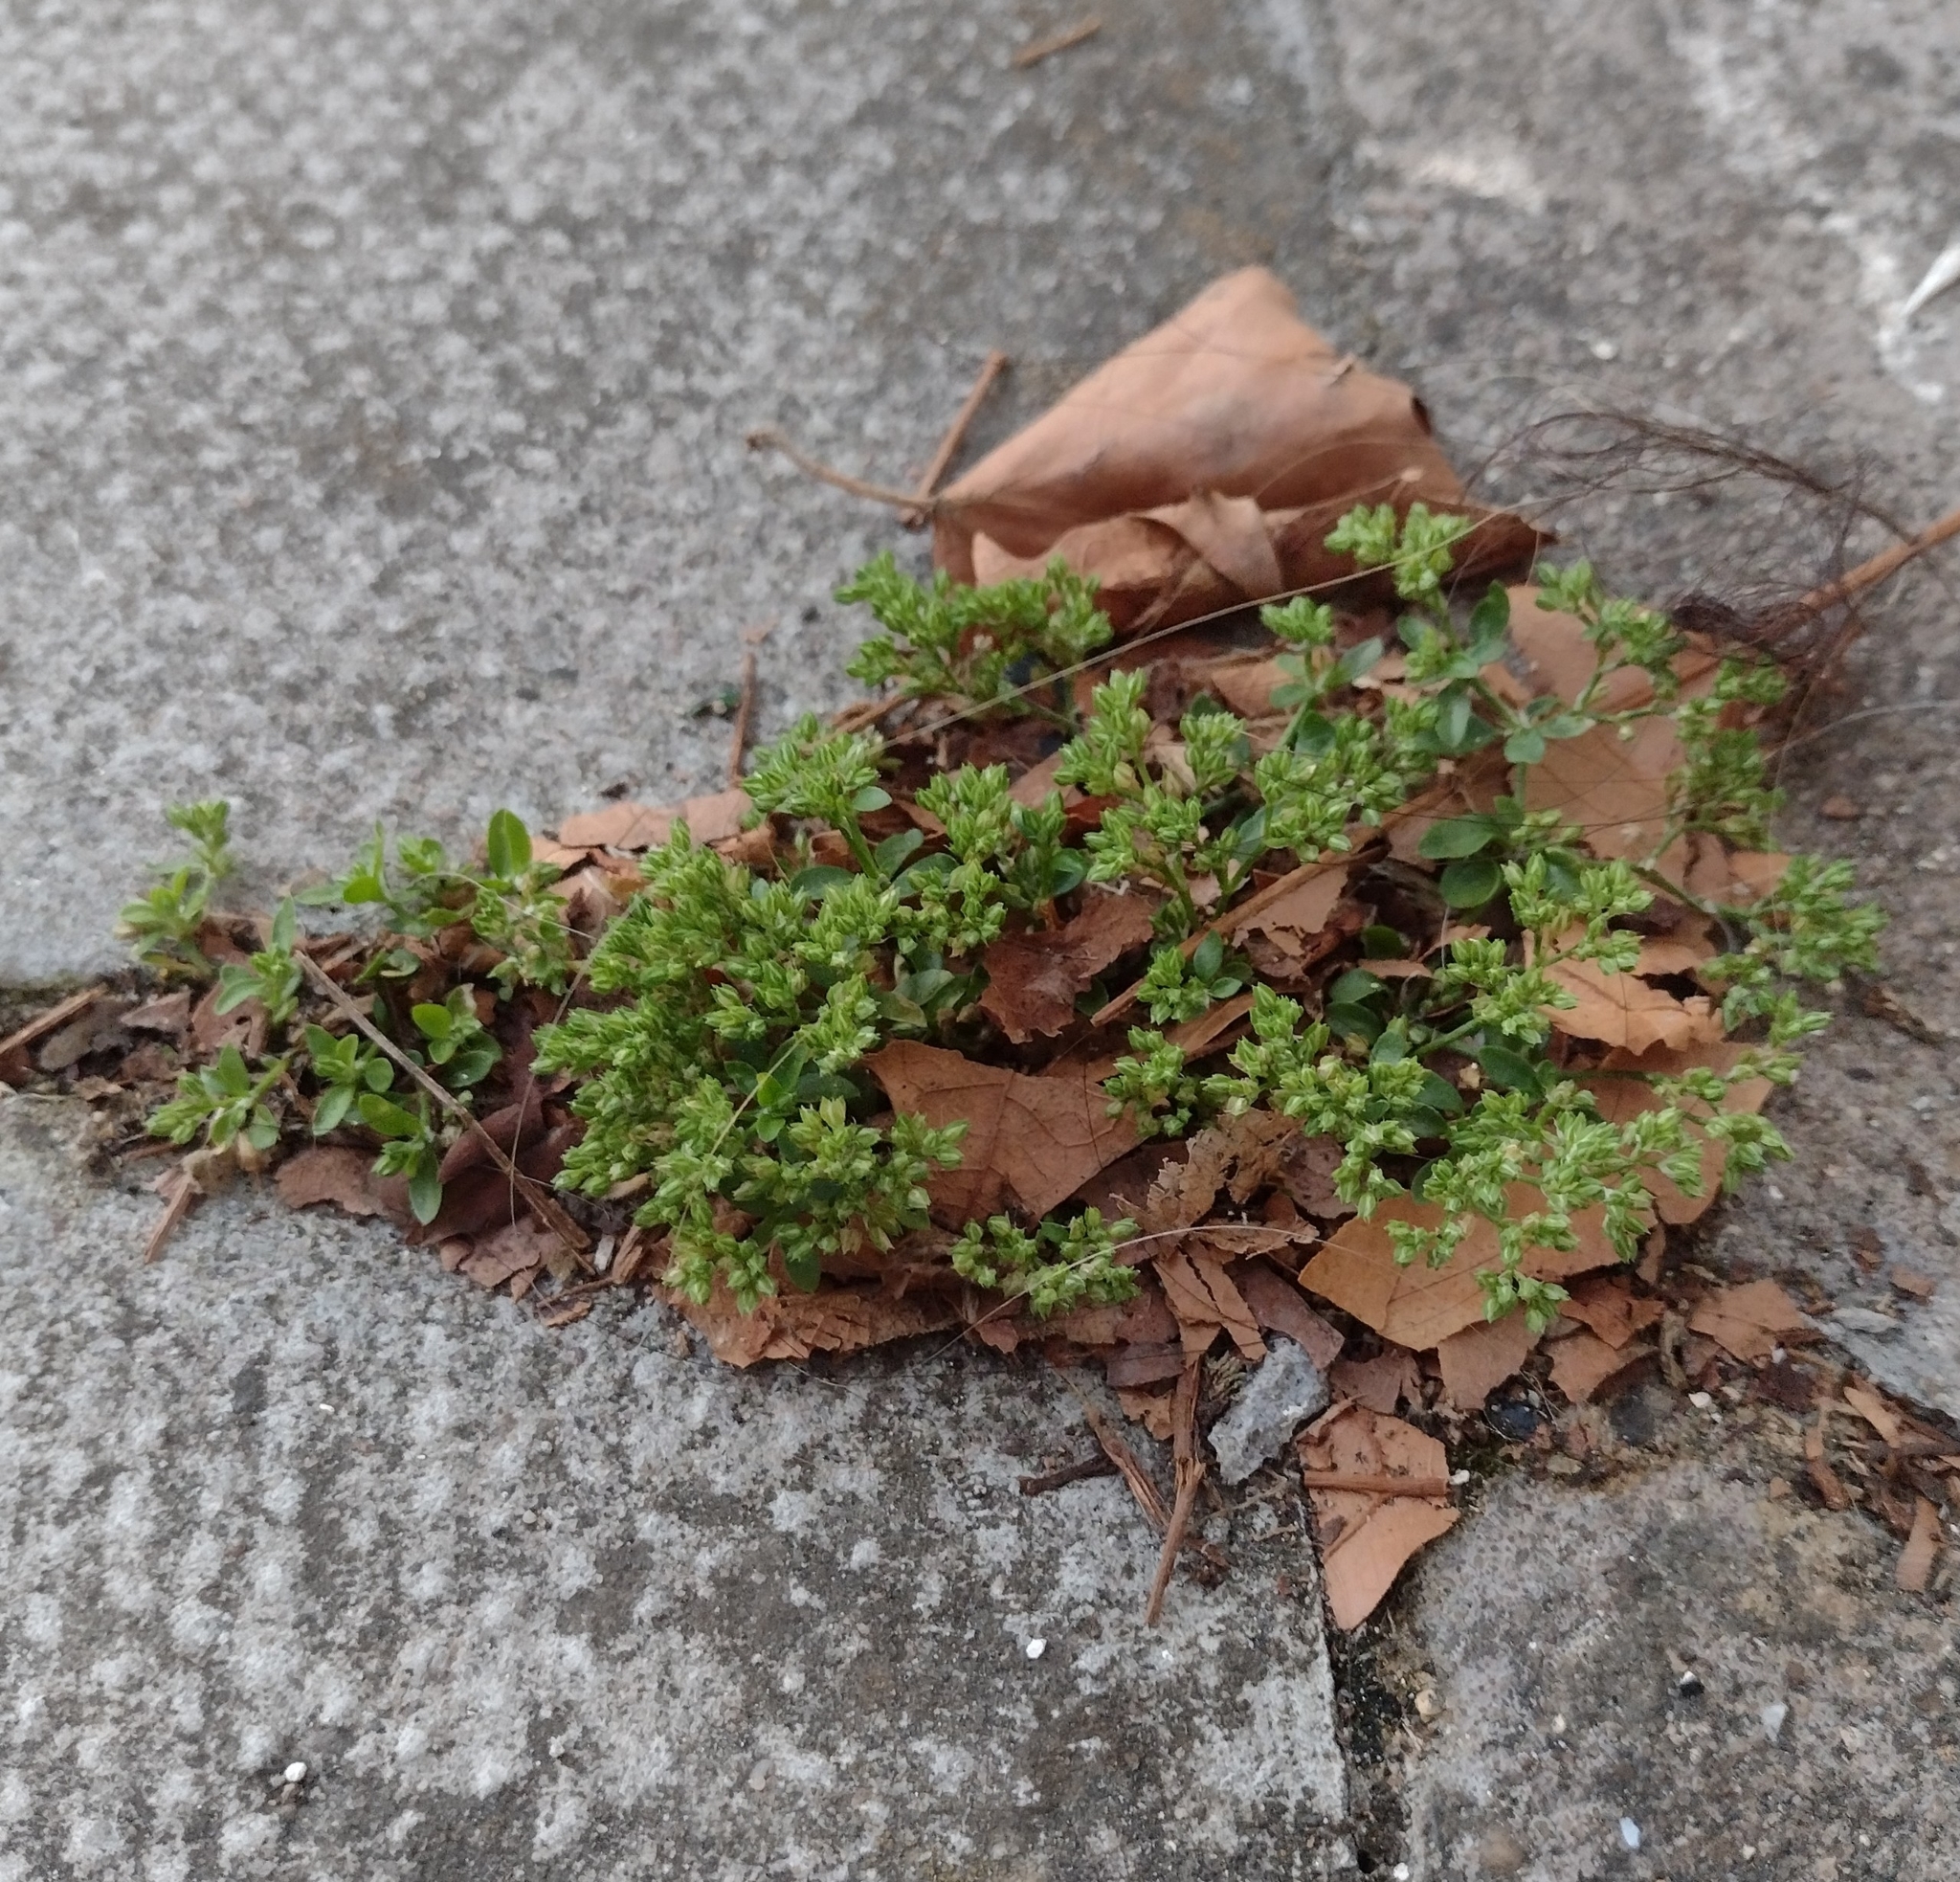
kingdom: Plantae
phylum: Tracheophyta
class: Magnoliopsida
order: Caryophyllales
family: Caryophyllaceae
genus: Polycarpon
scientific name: Polycarpon tetraphyllum
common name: Four-leaved all-seed
